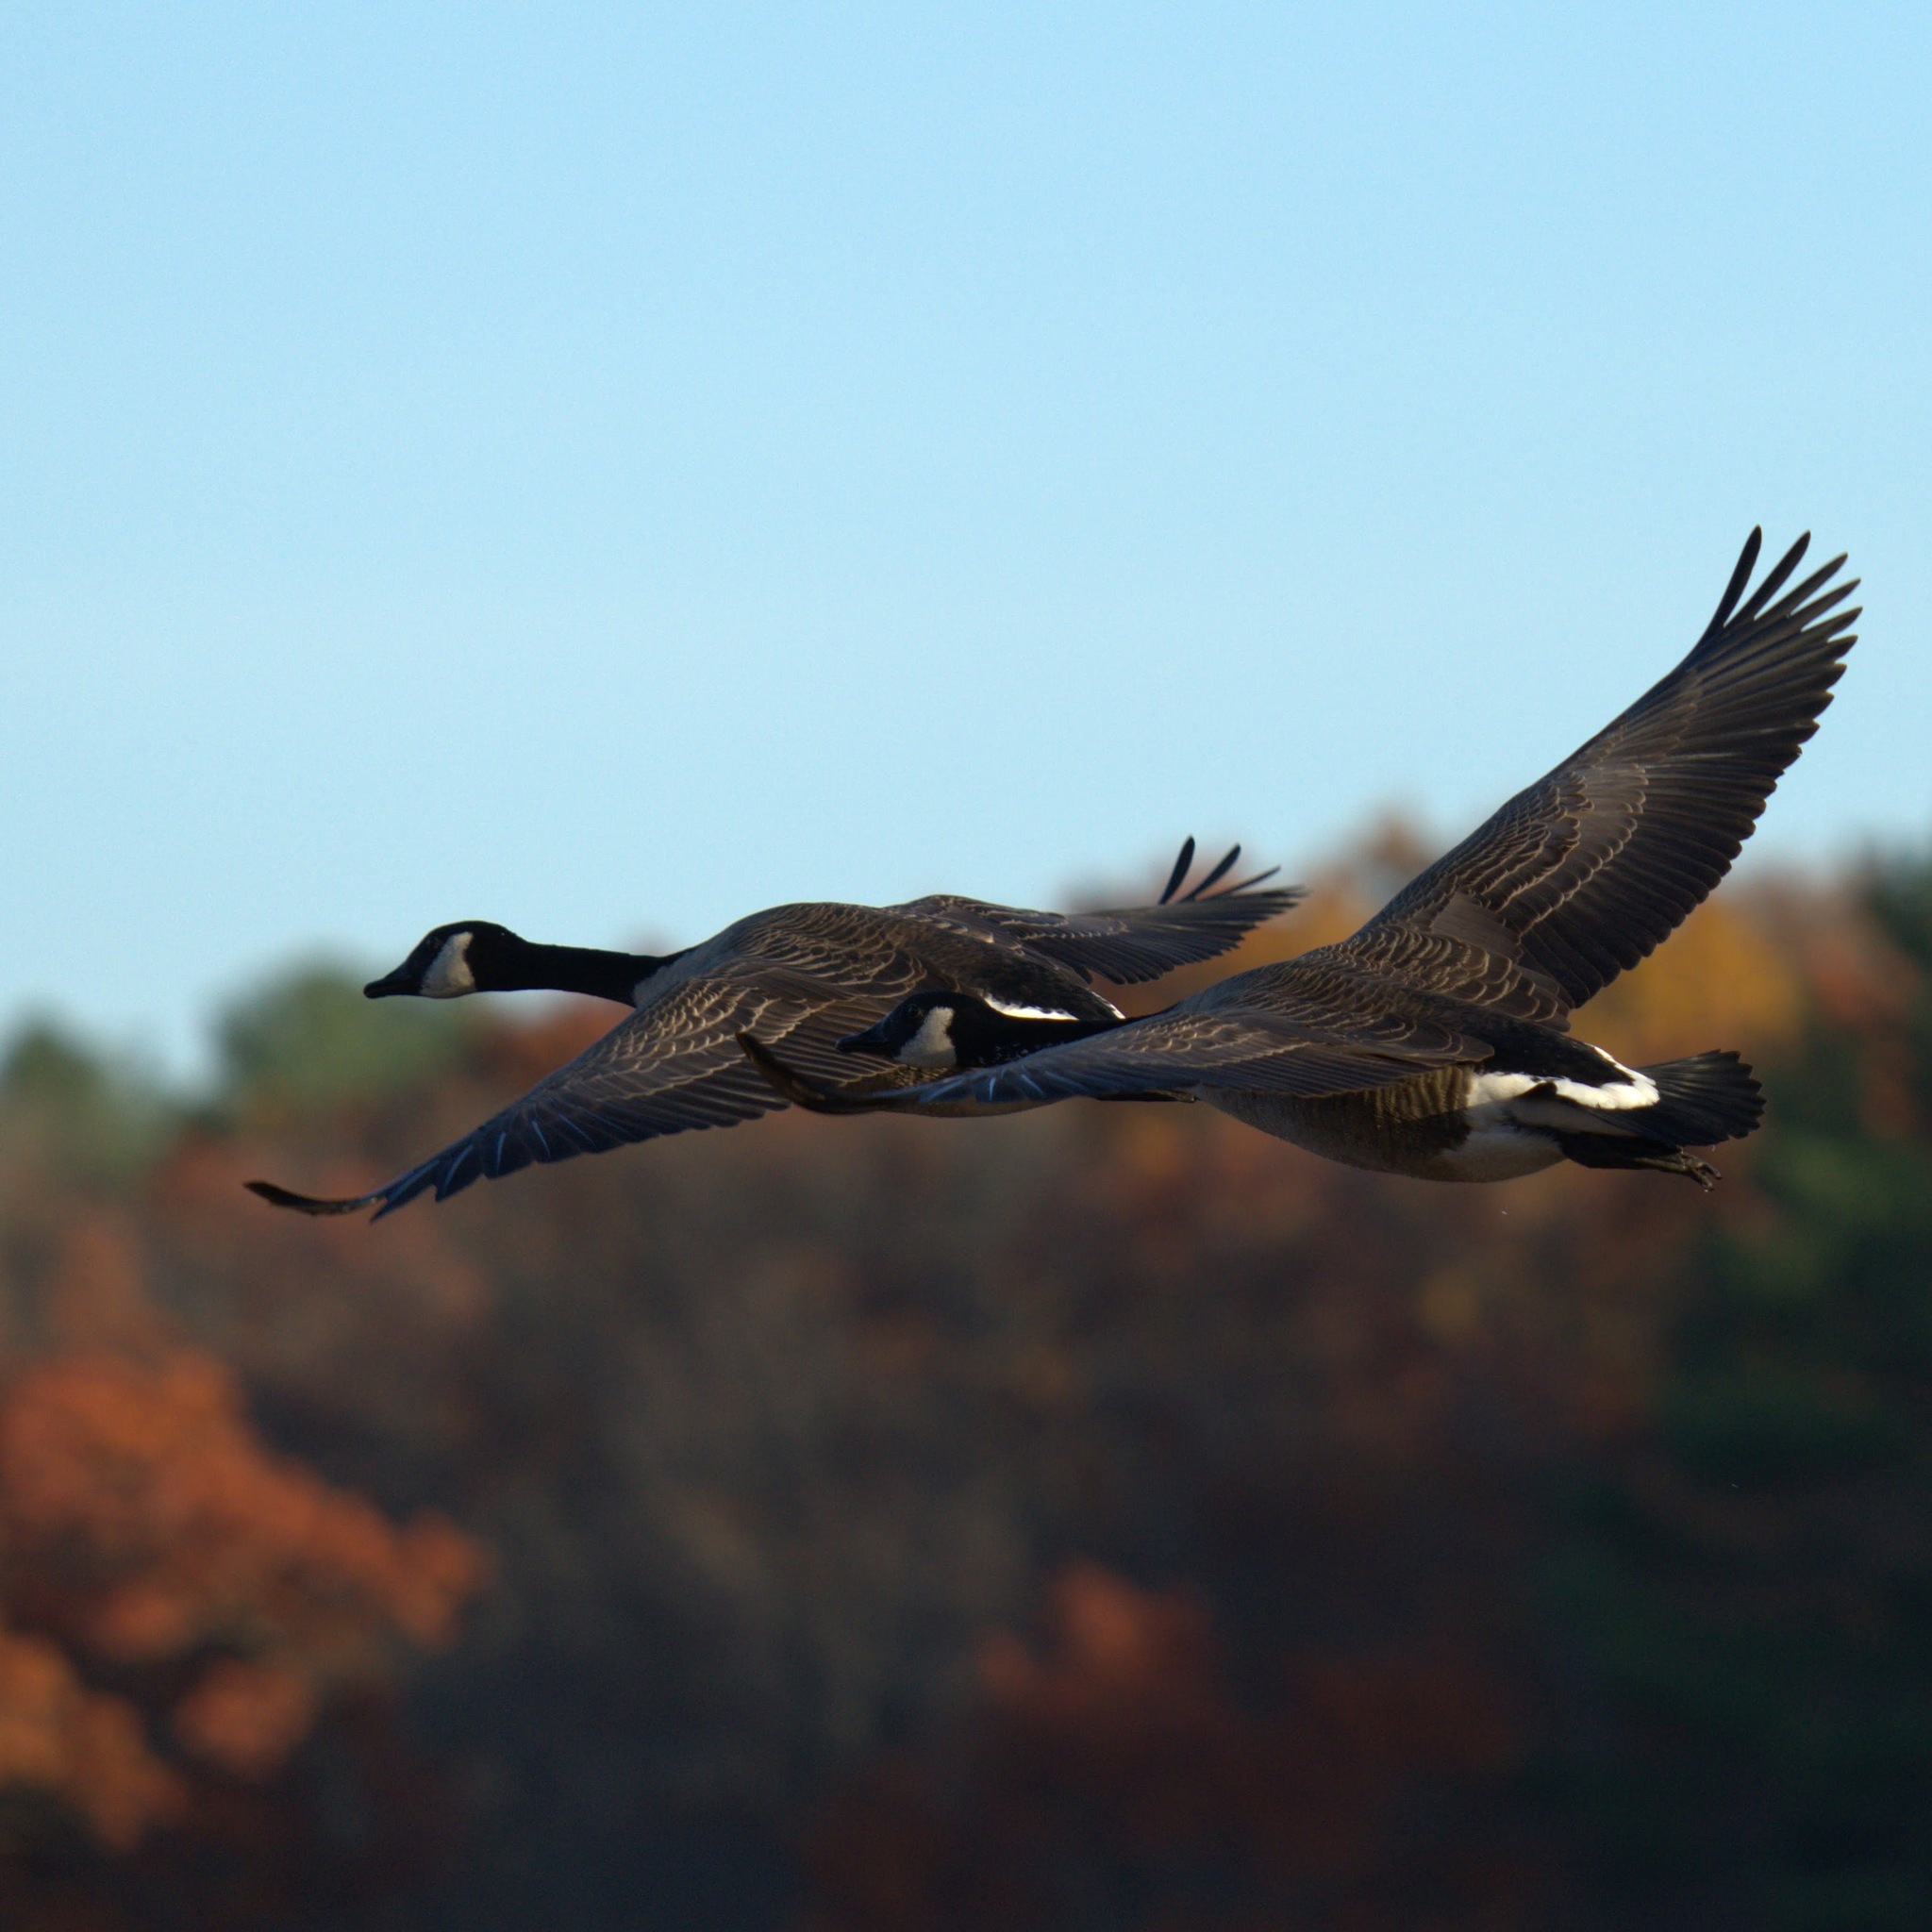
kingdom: Animalia
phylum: Chordata
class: Aves
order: Anseriformes
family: Anatidae
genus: Branta
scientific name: Branta canadensis
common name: Canada goose
